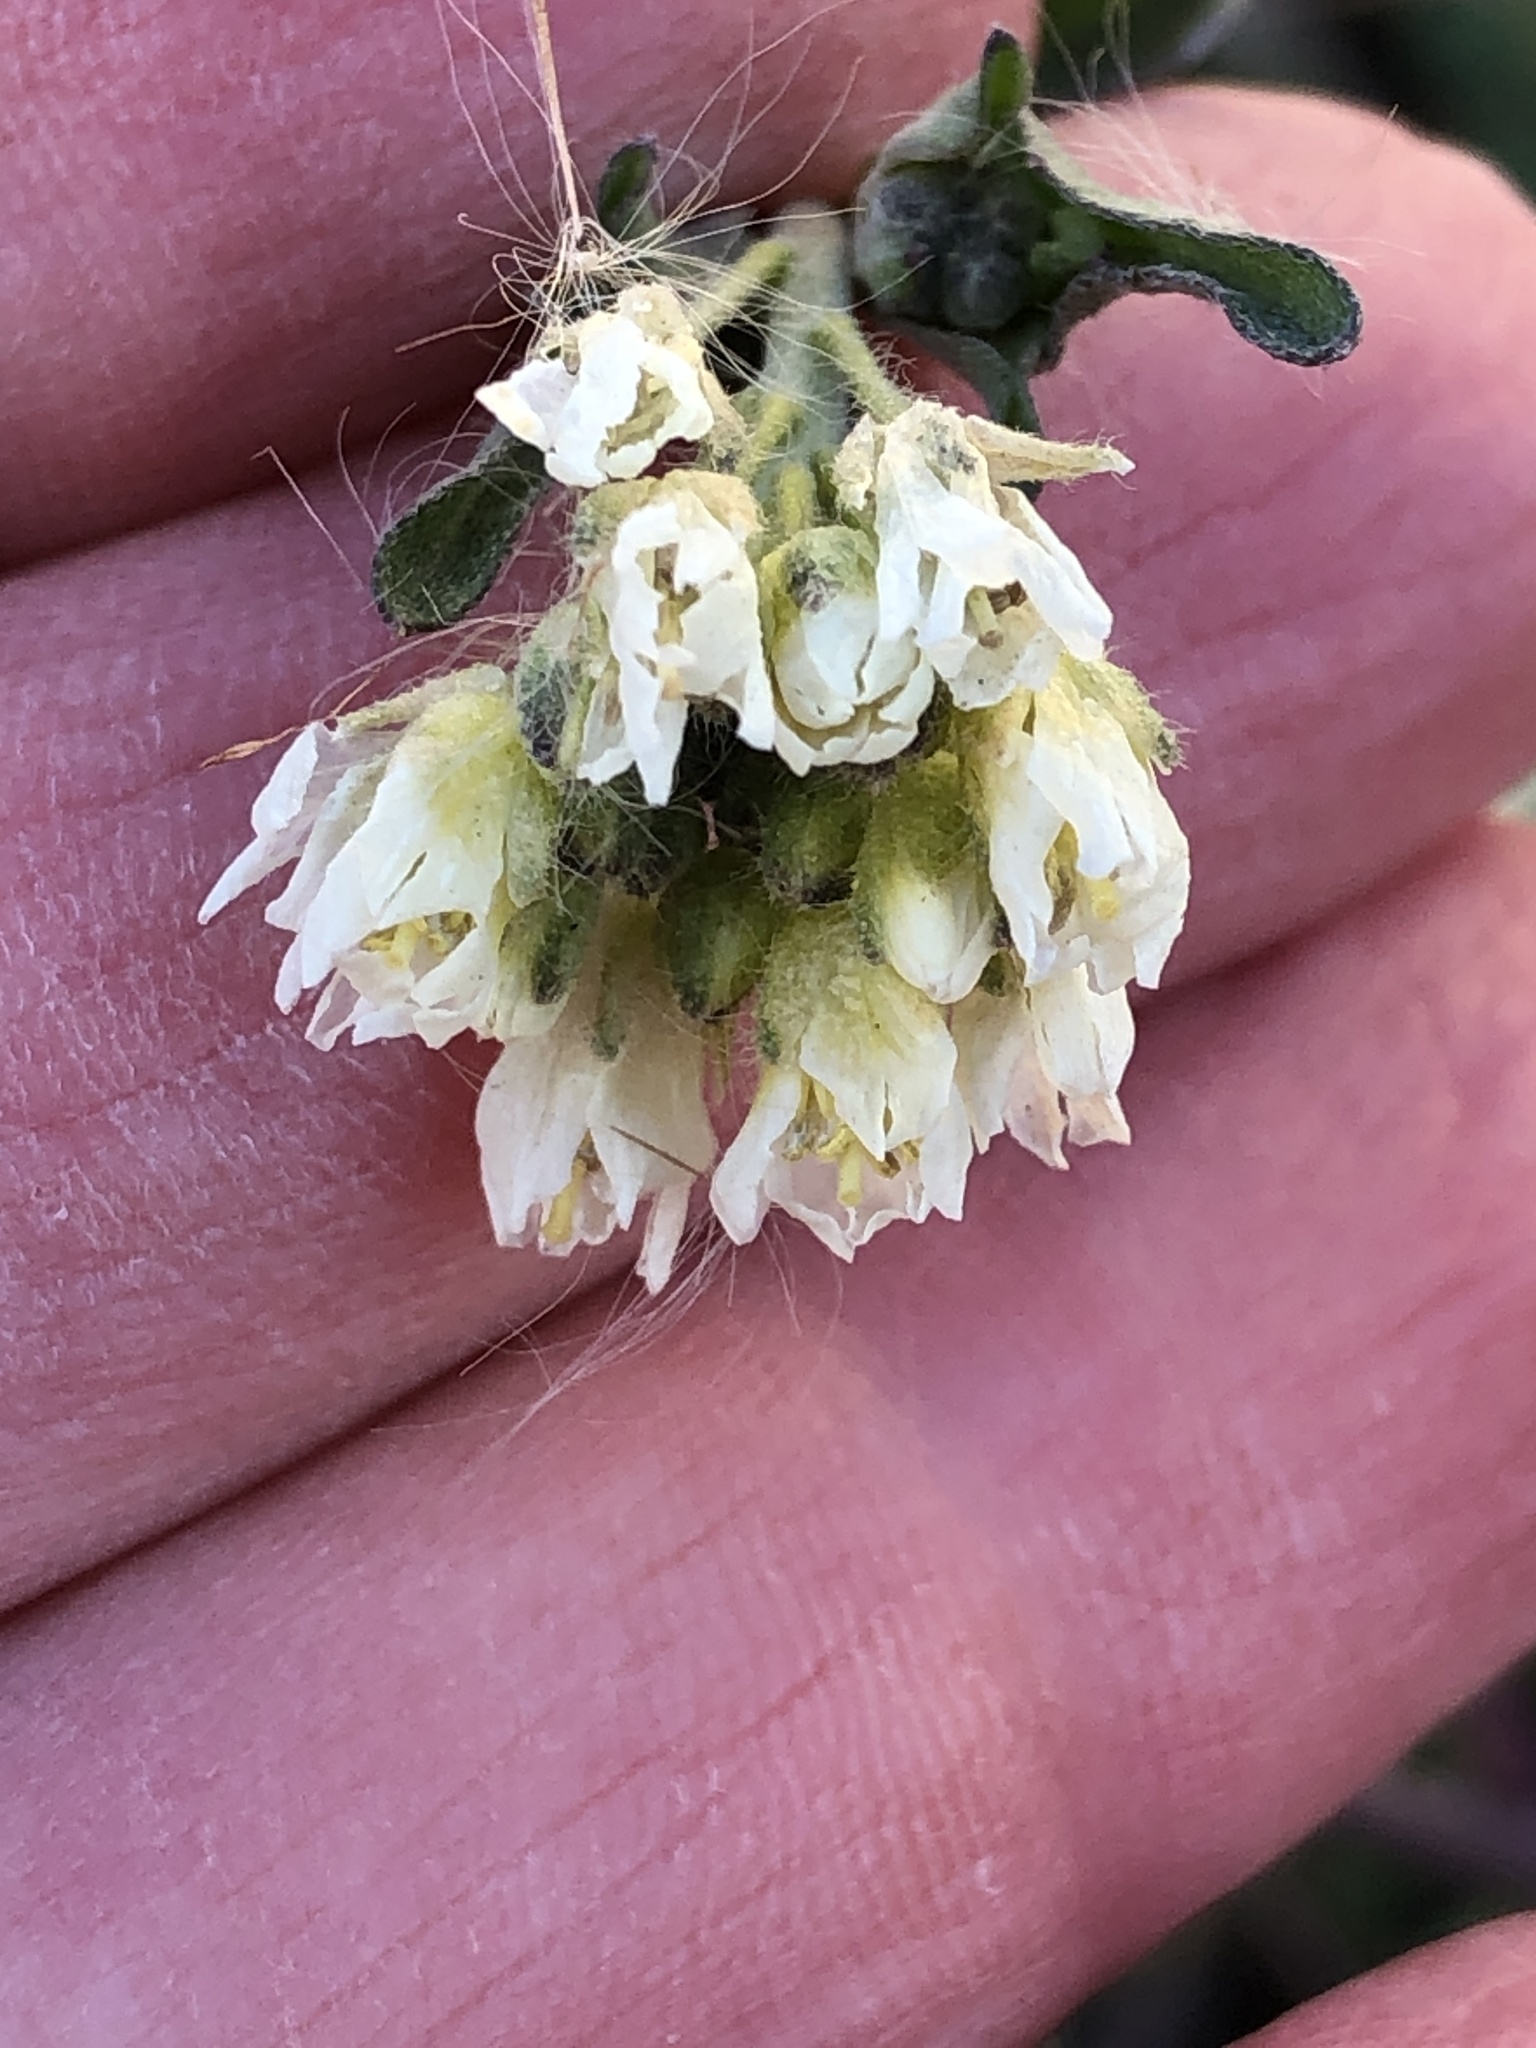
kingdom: Plantae
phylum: Tracheophyta
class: Magnoliopsida
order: Brassicales
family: Brassicaceae
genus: Berteroa
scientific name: Berteroa incana
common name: Hoary alison
